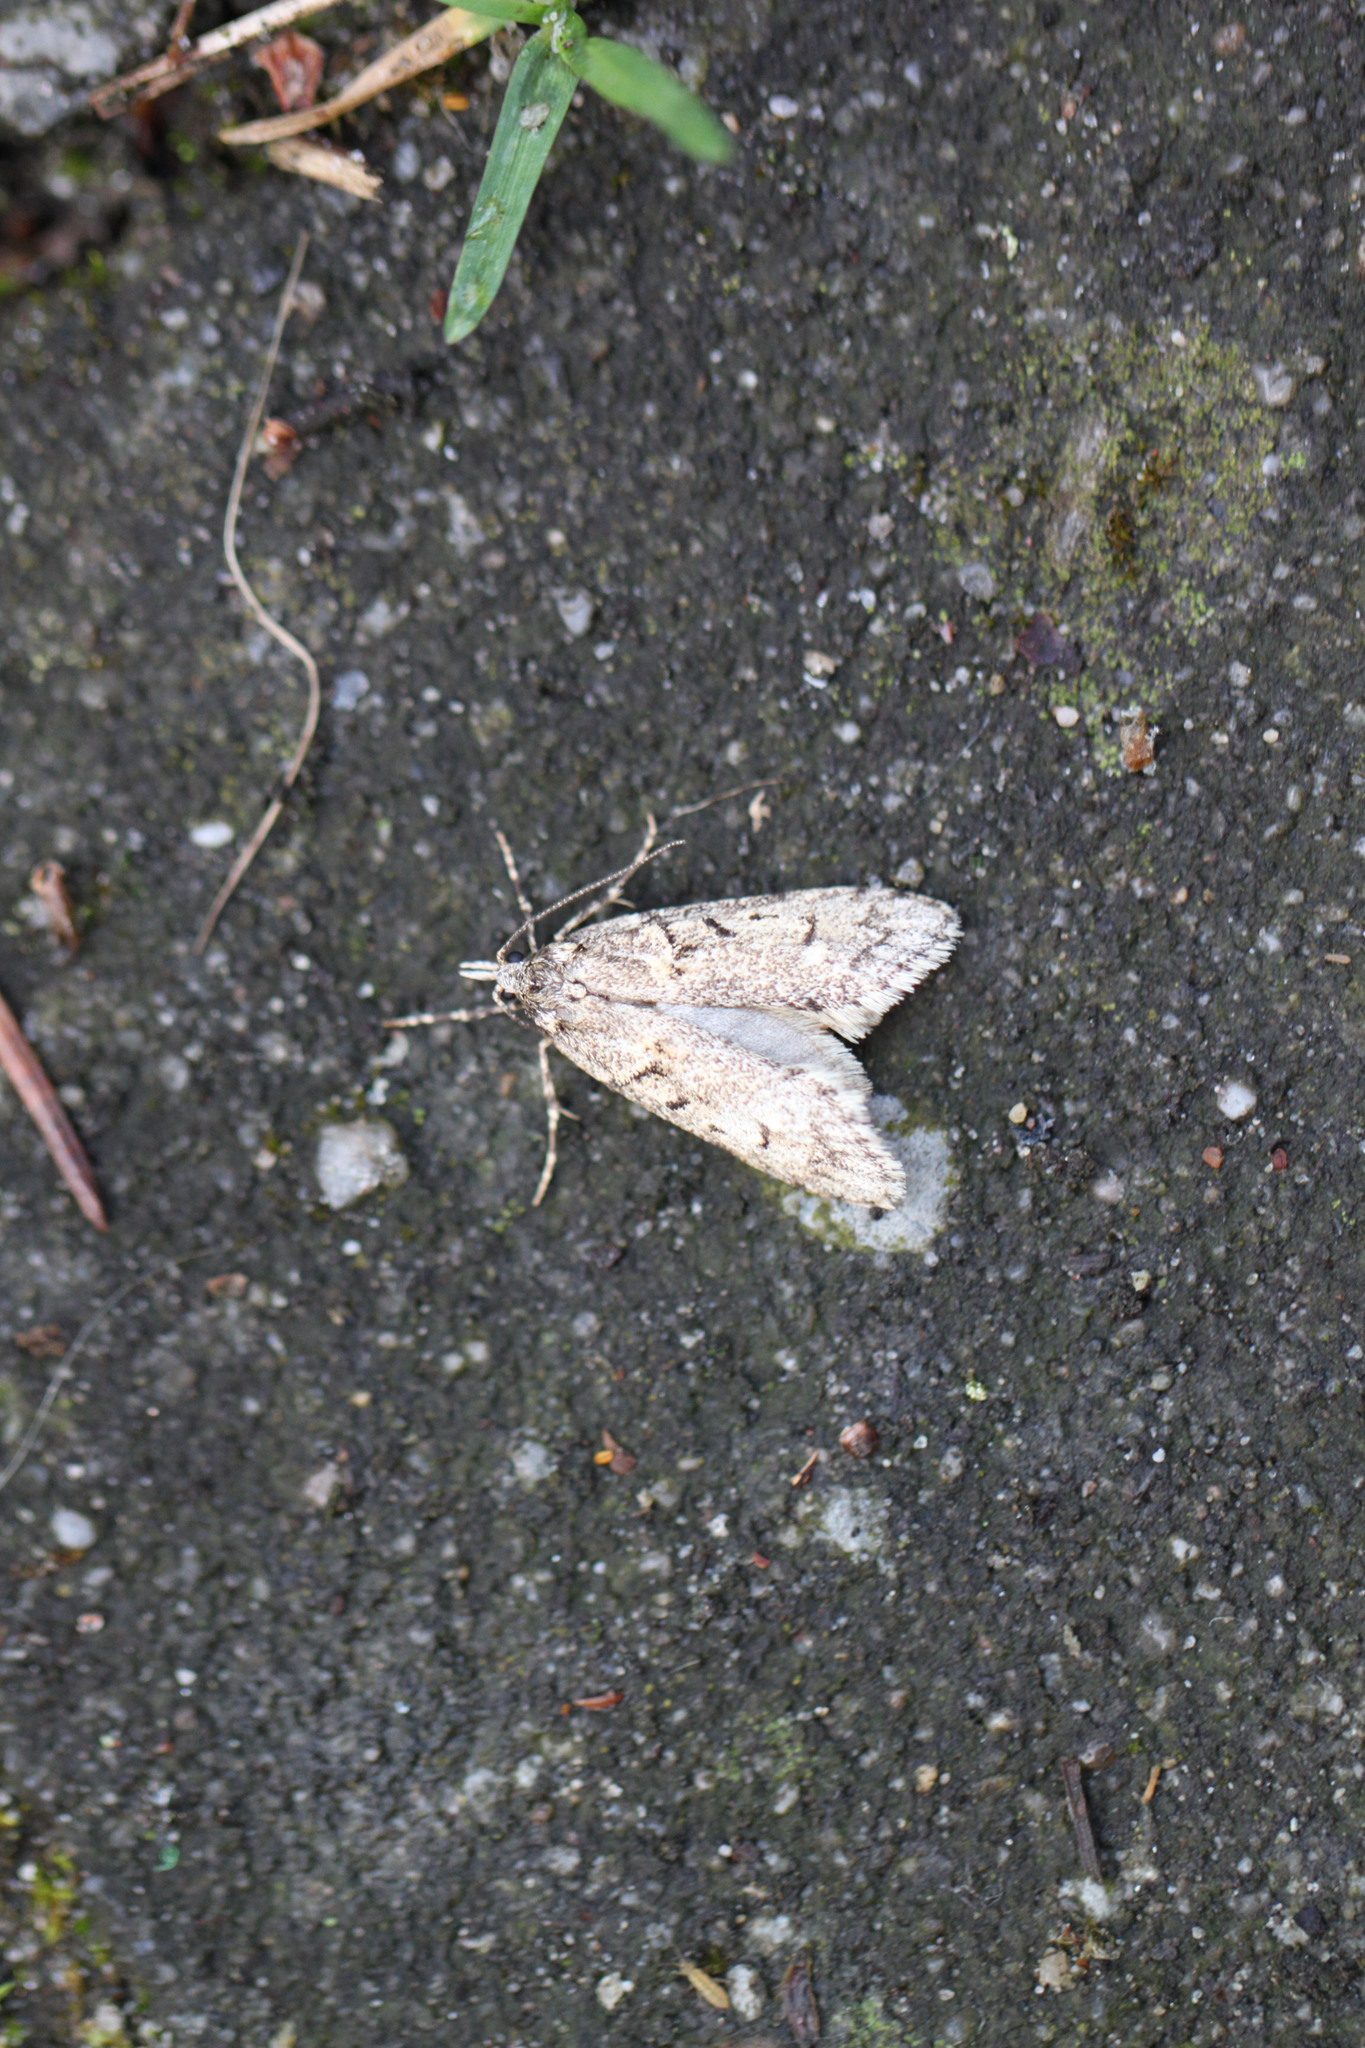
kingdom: Animalia
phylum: Arthropoda
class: Insecta
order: Lepidoptera
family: Lypusidae
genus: Diurnea
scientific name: Diurnea fagella
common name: March tubic
